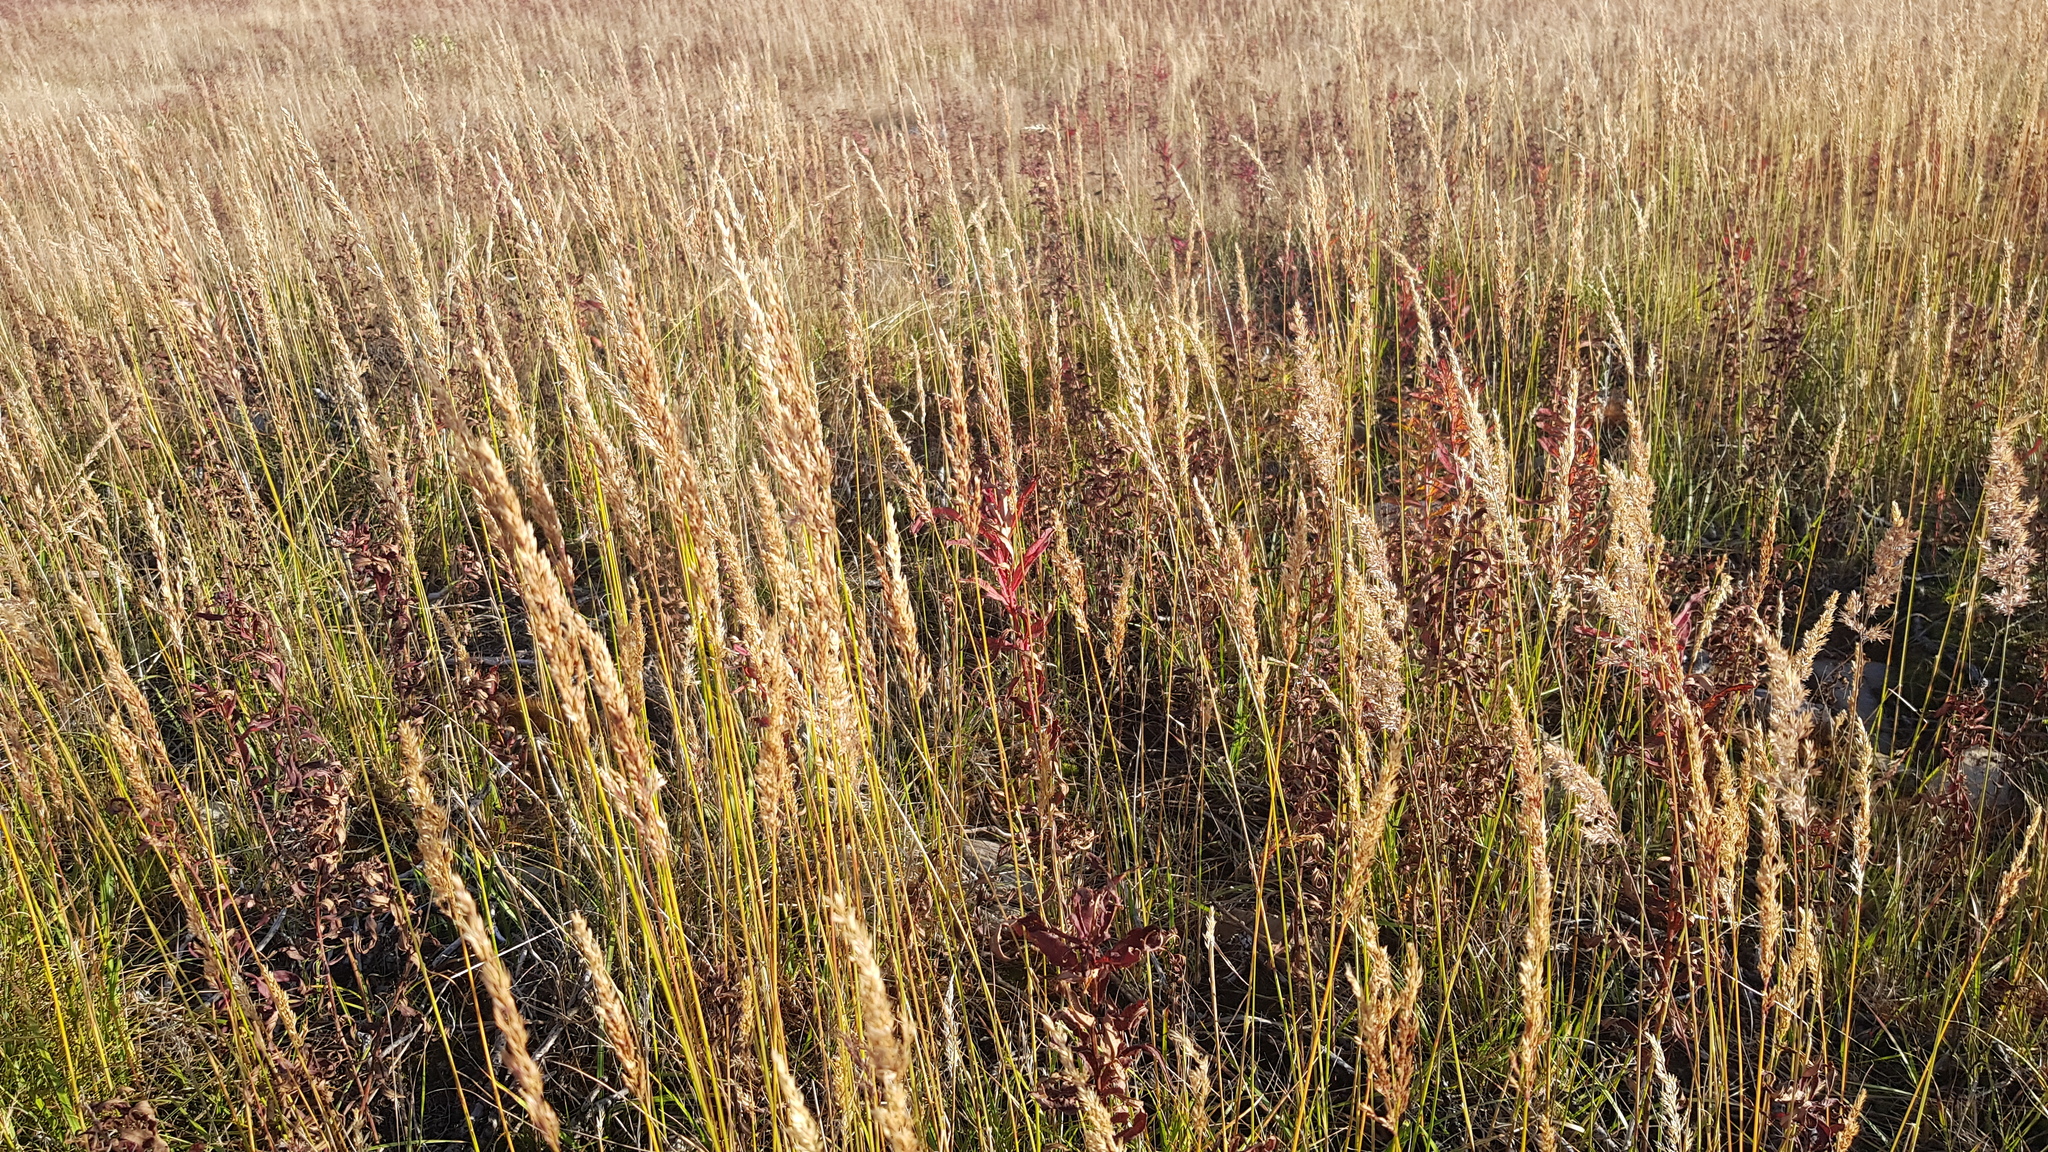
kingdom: Plantae
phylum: Tracheophyta
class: Liliopsida
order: Poales
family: Poaceae
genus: Koeleria
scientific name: Koeleria macrantha
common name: Crested hair-grass
